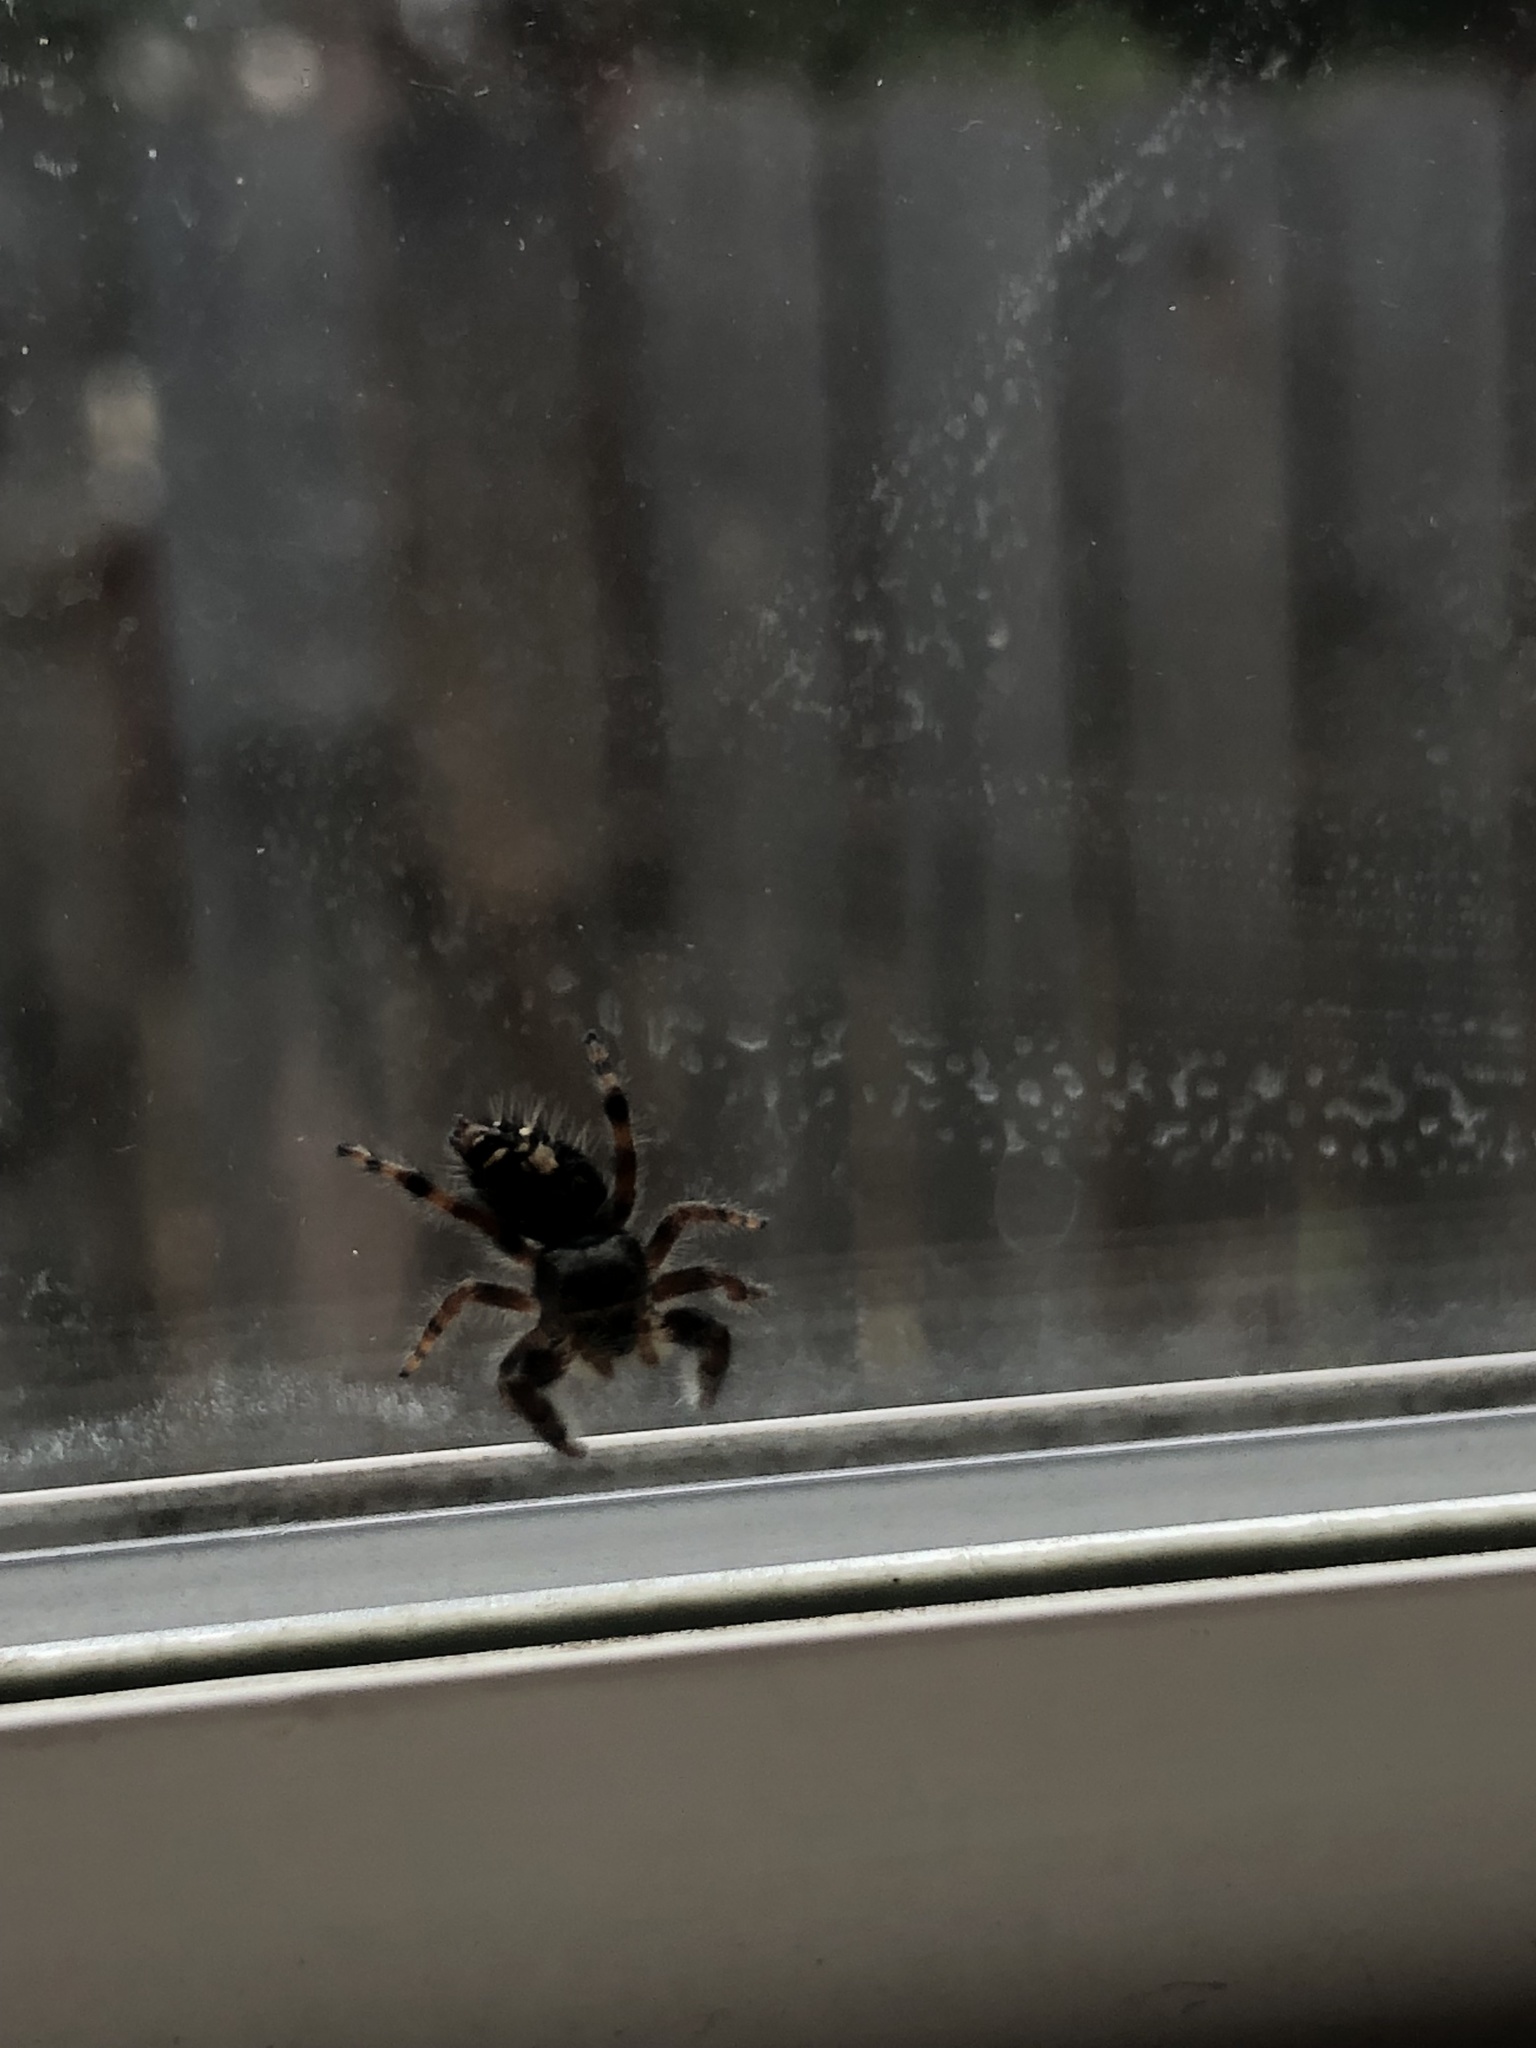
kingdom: Animalia
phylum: Arthropoda
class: Arachnida
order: Araneae
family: Salticidae
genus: Phidippus
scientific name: Phidippus audax
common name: Bold jumper
